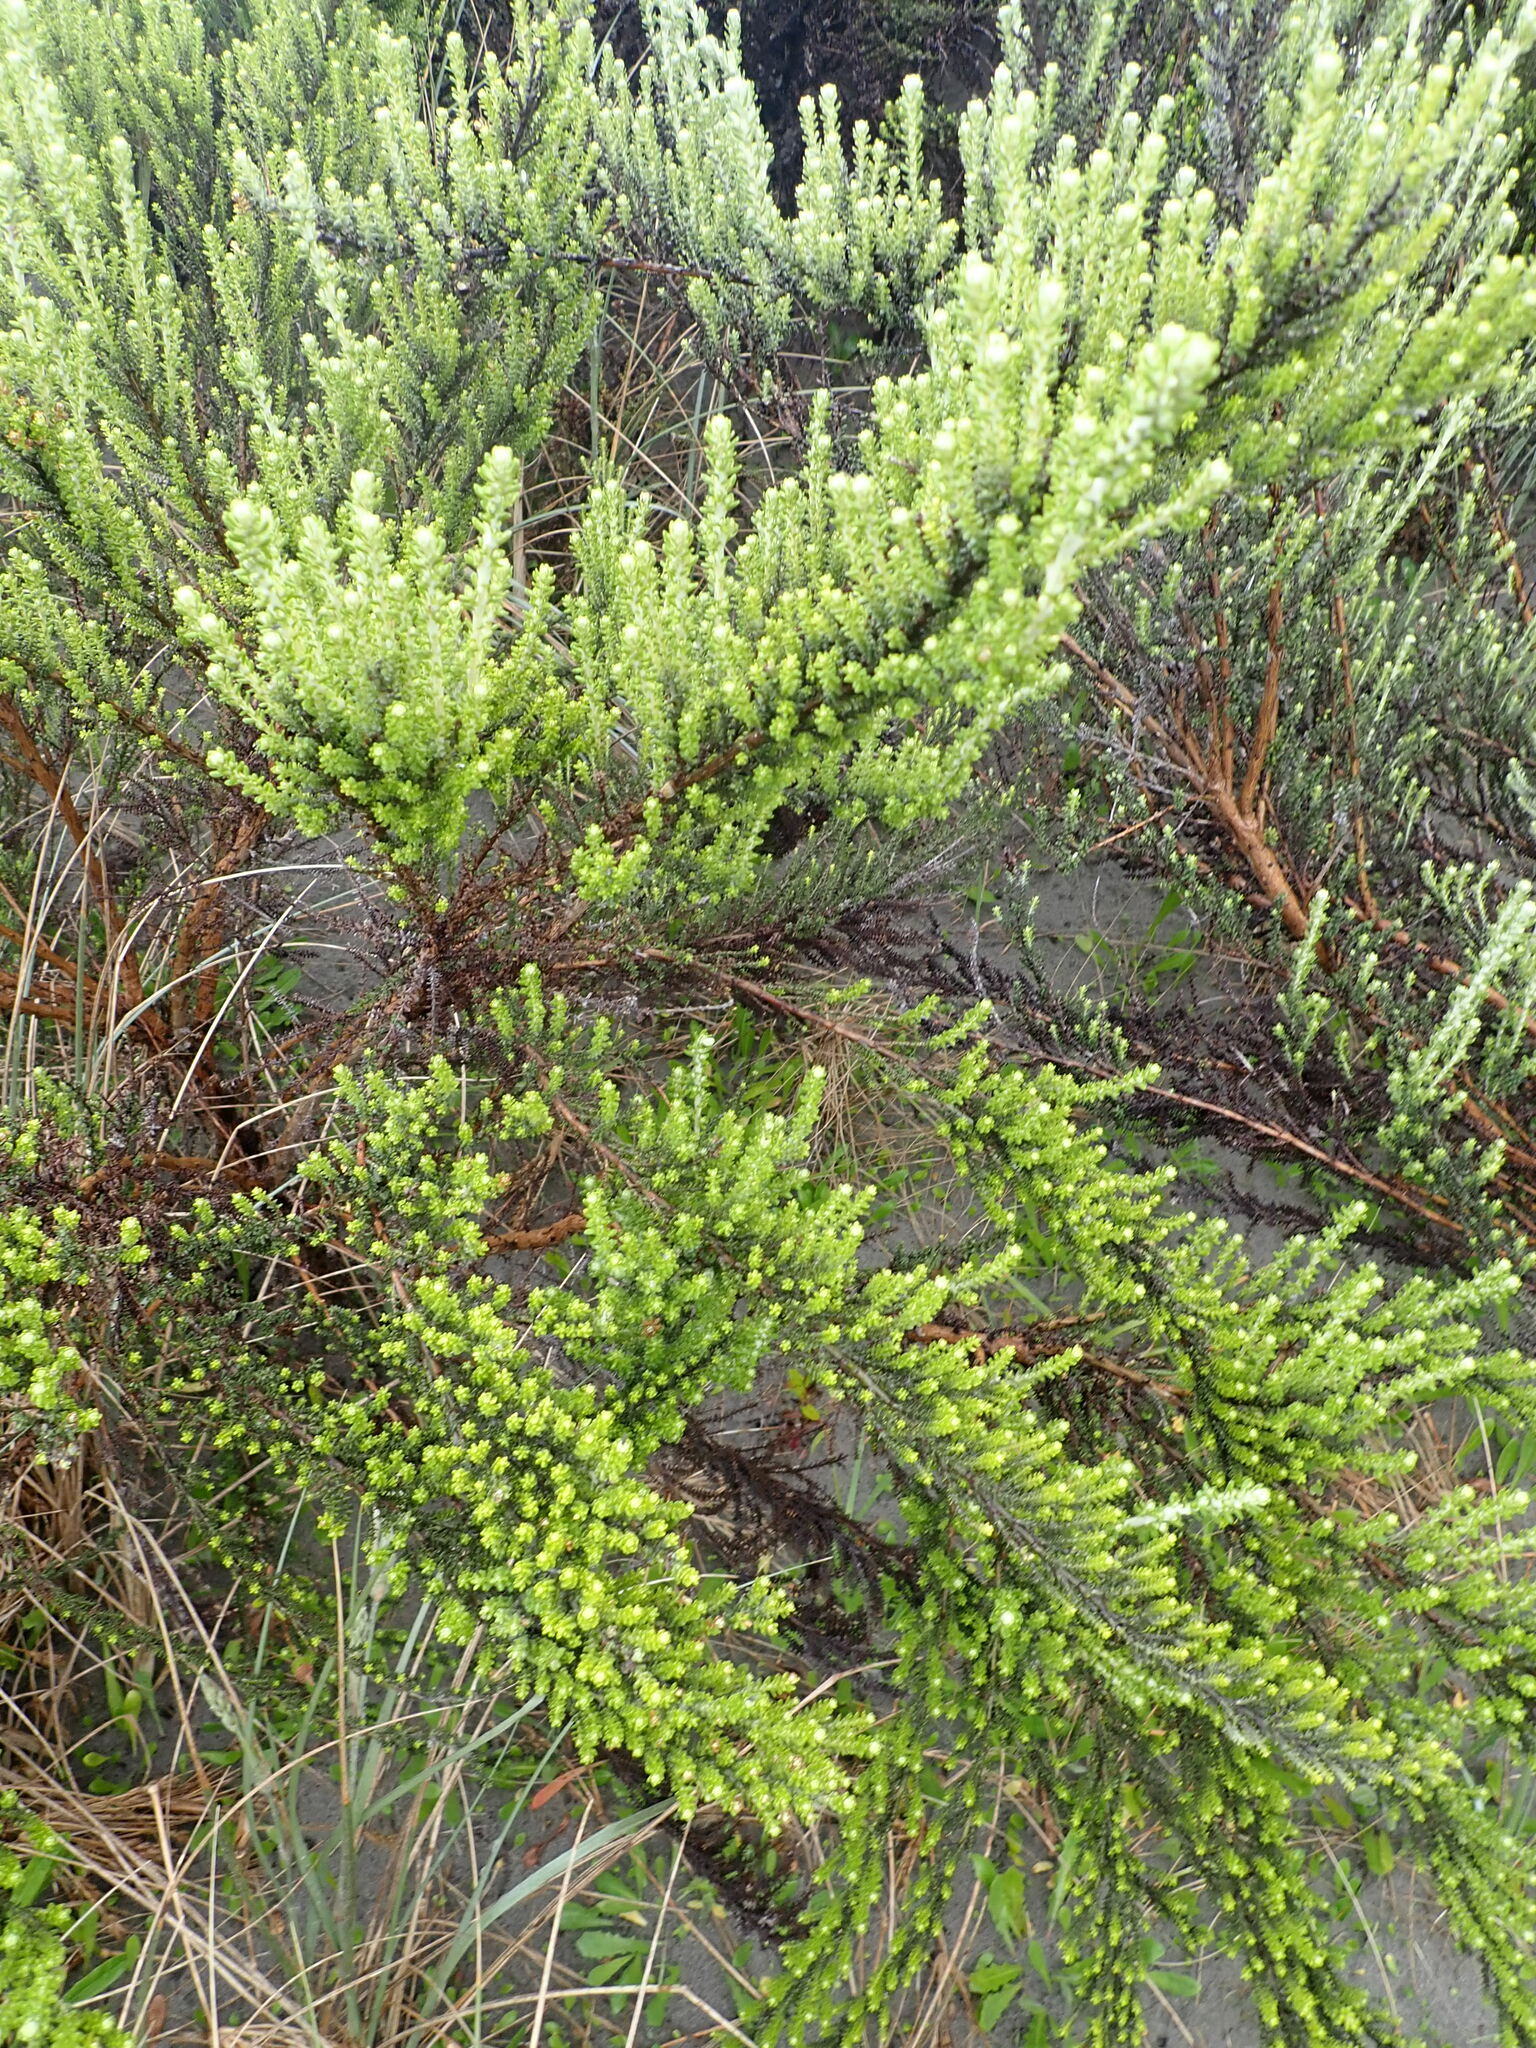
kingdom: Plantae
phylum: Tracheophyta
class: Magnoliopsida
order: Asterales
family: Asteraceae
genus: Ozothamnus
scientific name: Ozothamnus leptophyllus
